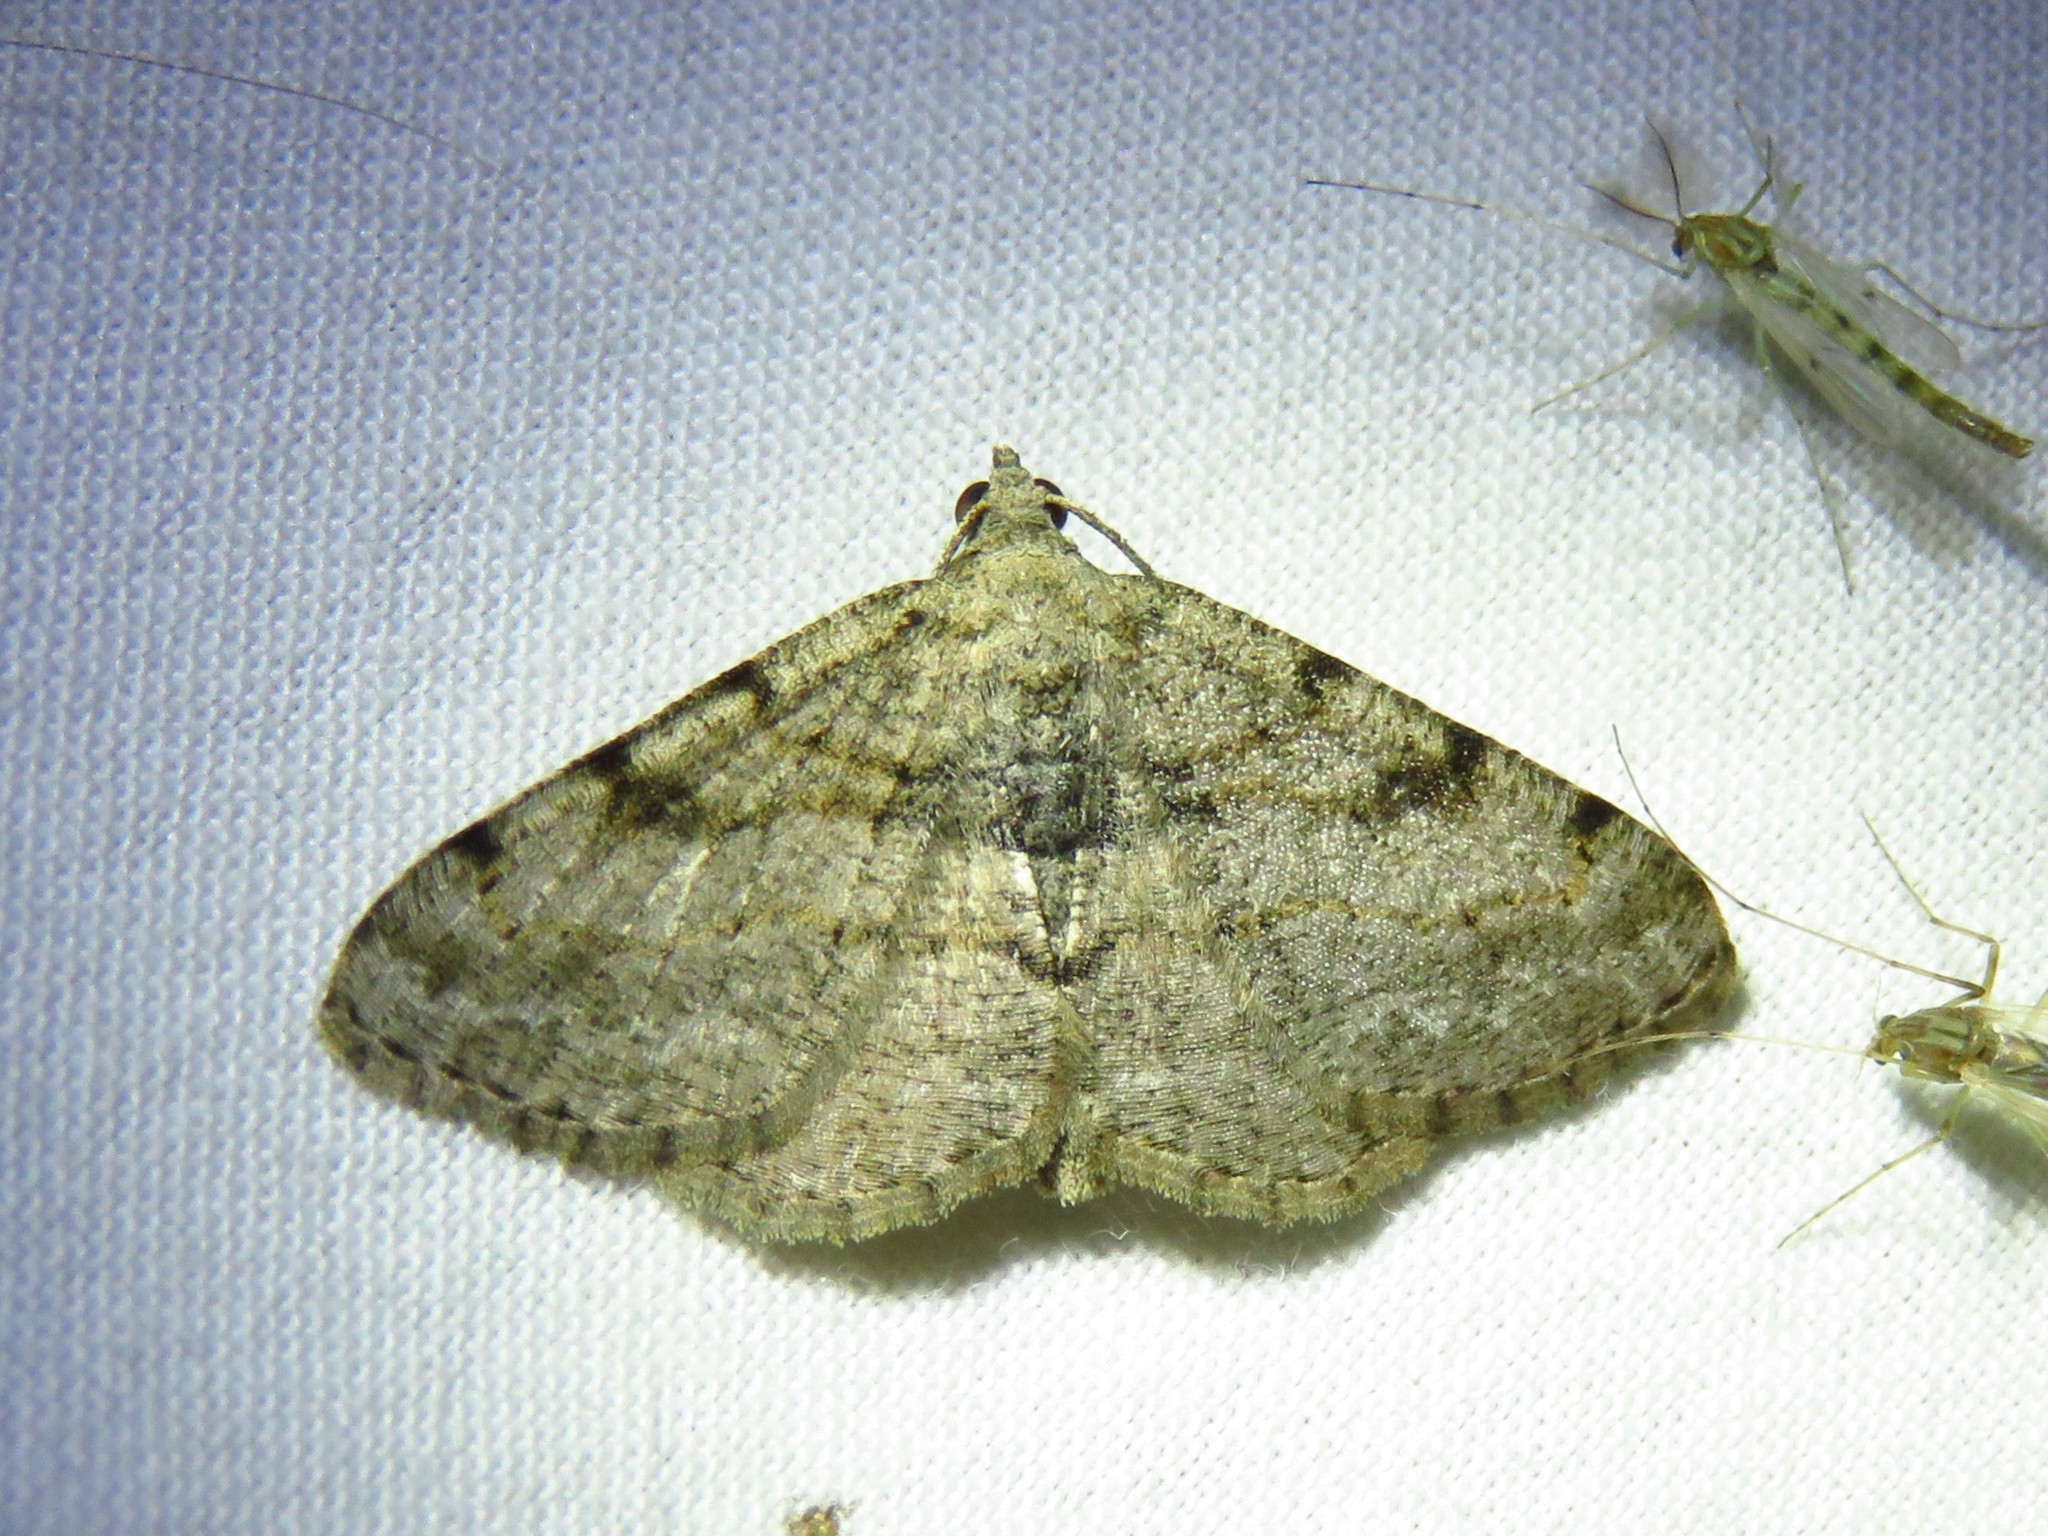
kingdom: Animalia
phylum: Arthropoda
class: Insecta
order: Lepidoptera
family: Geometridae
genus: Digrammia
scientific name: Digrammia gnophosaria
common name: Hollow-spotted angle
